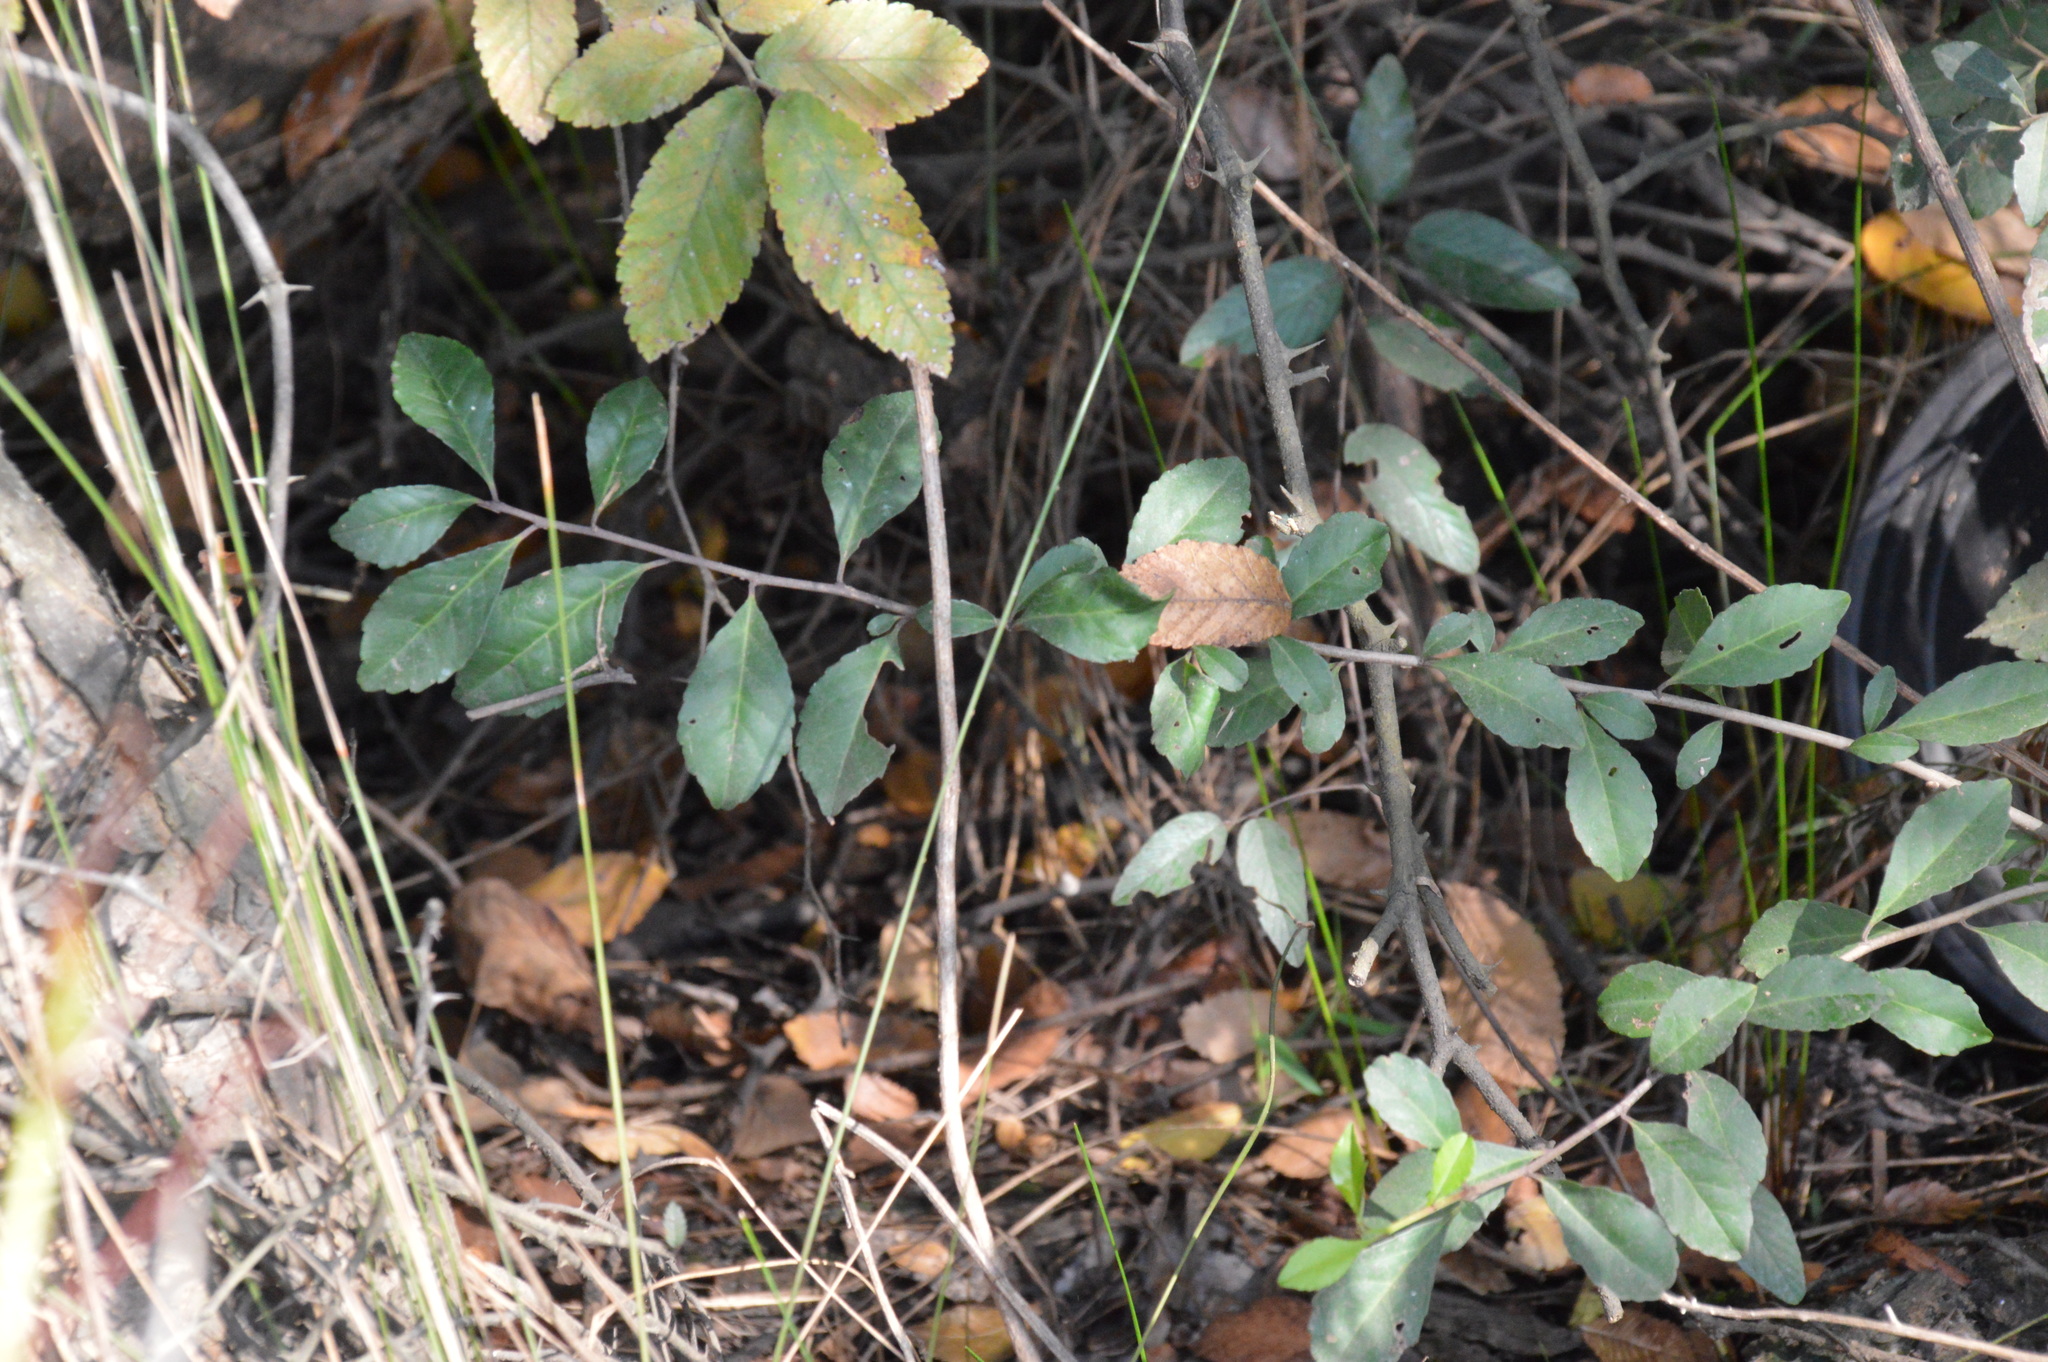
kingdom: Plantae
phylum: Tracheophyta
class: Magnoliopsida
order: Aquifoliales
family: Aquifoliaceae
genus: Ilex
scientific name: Ilex decidua
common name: Possum-haw
